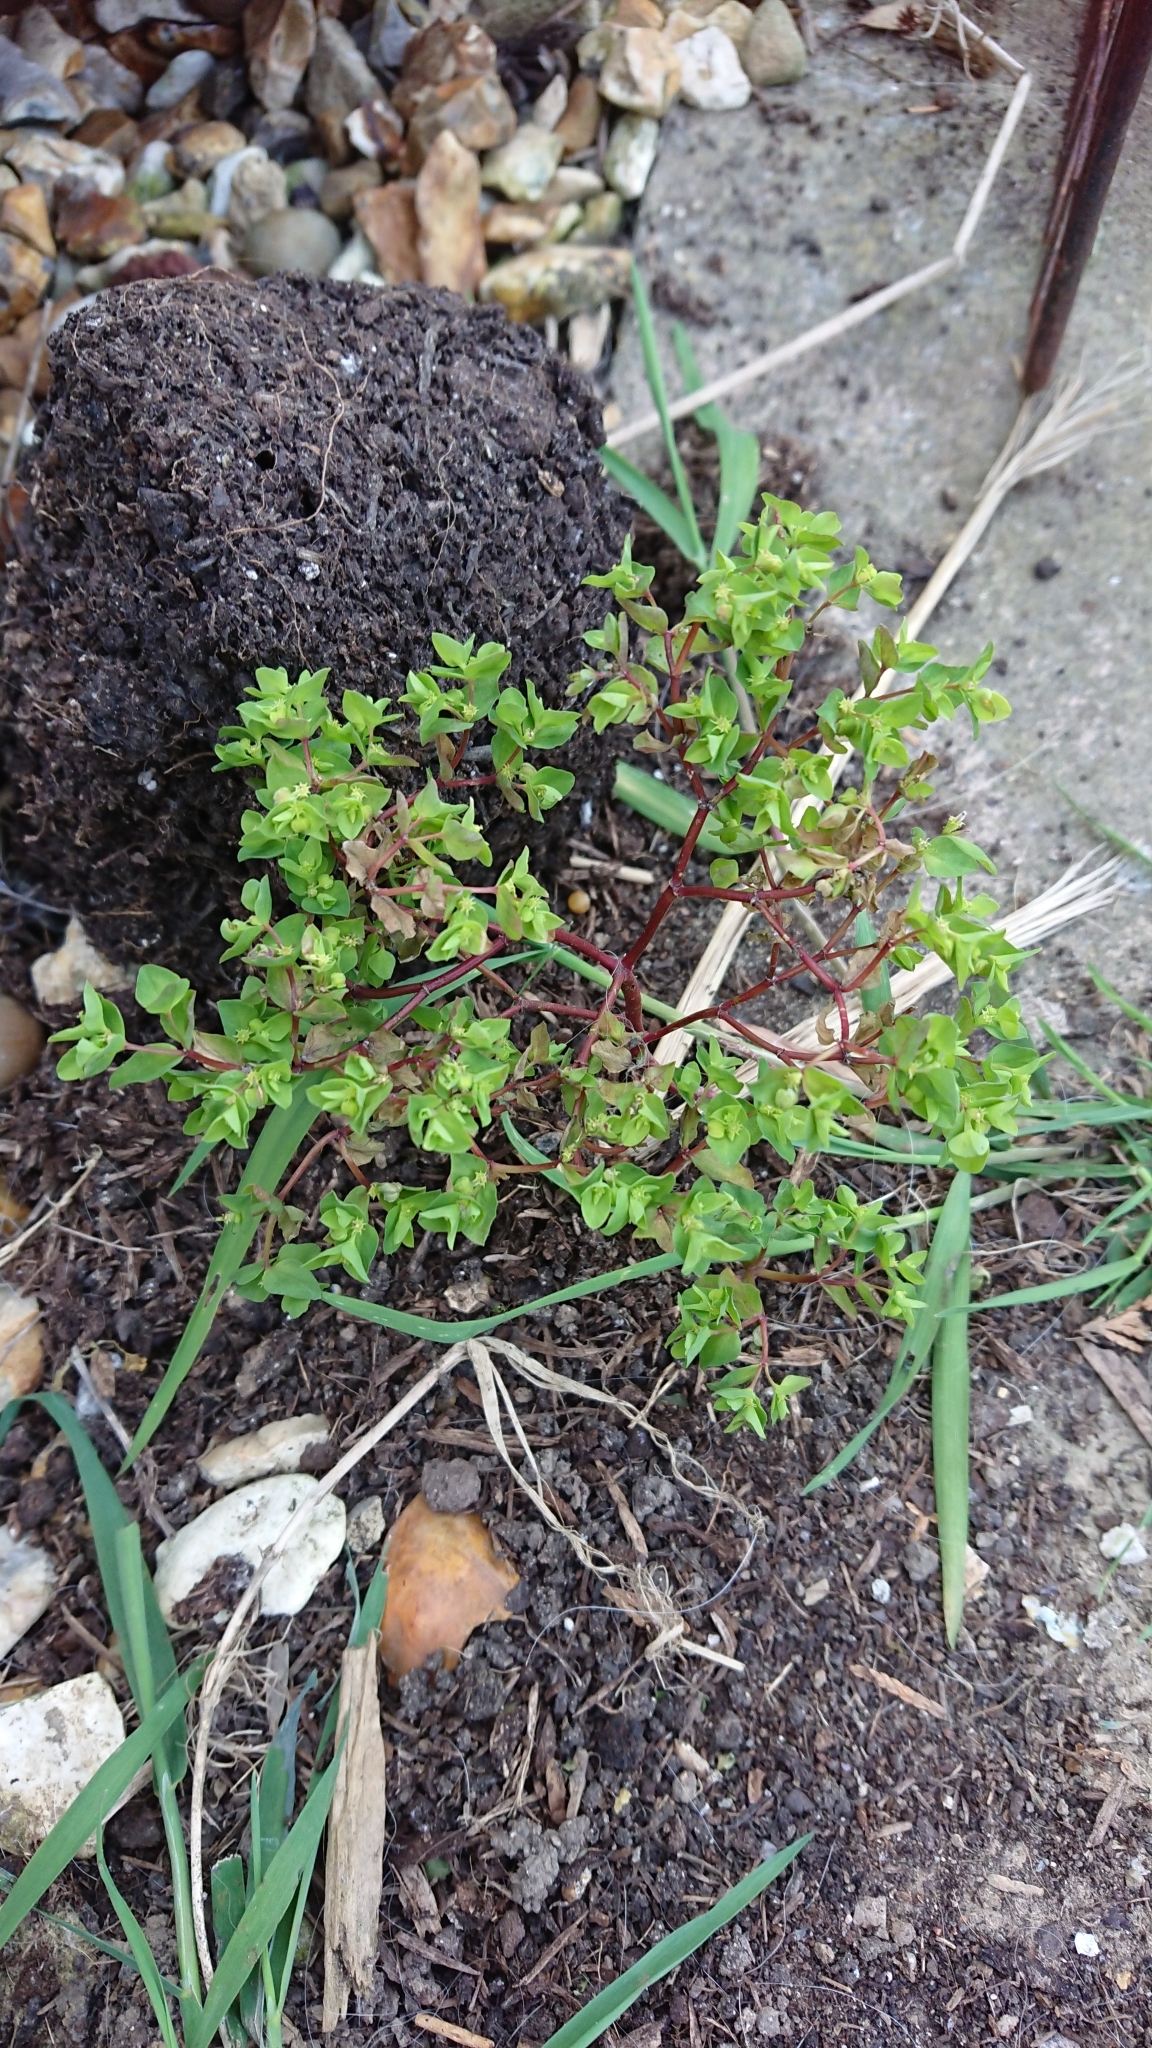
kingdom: Plantae
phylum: Tracheophyta
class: Magnoliopsida
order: Malpighiales
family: Euphorbiaceae
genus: Euphorbia
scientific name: Euphorbia peplus
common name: Petty spurge
